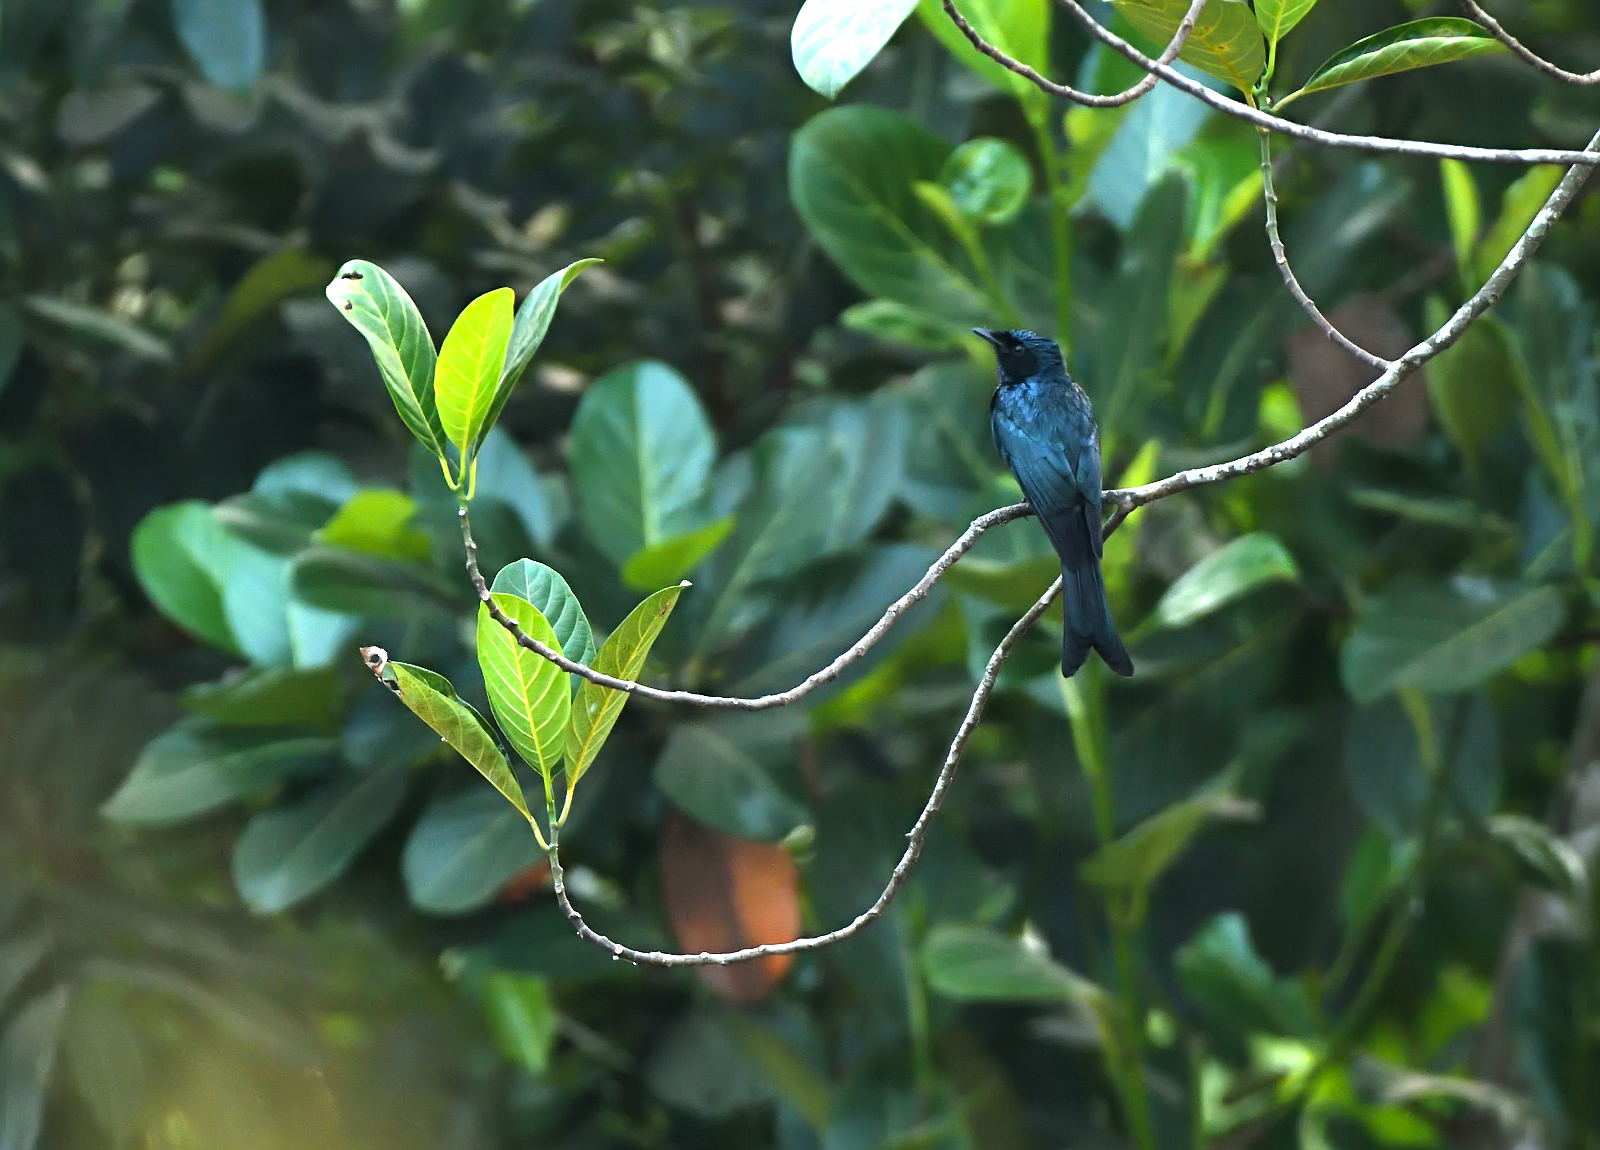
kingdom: Animalia
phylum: Chordata
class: Aves
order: Passeriformes
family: Dicruridae
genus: Dicrurus
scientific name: Dicrurus aeneus
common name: Bronzed drongo
